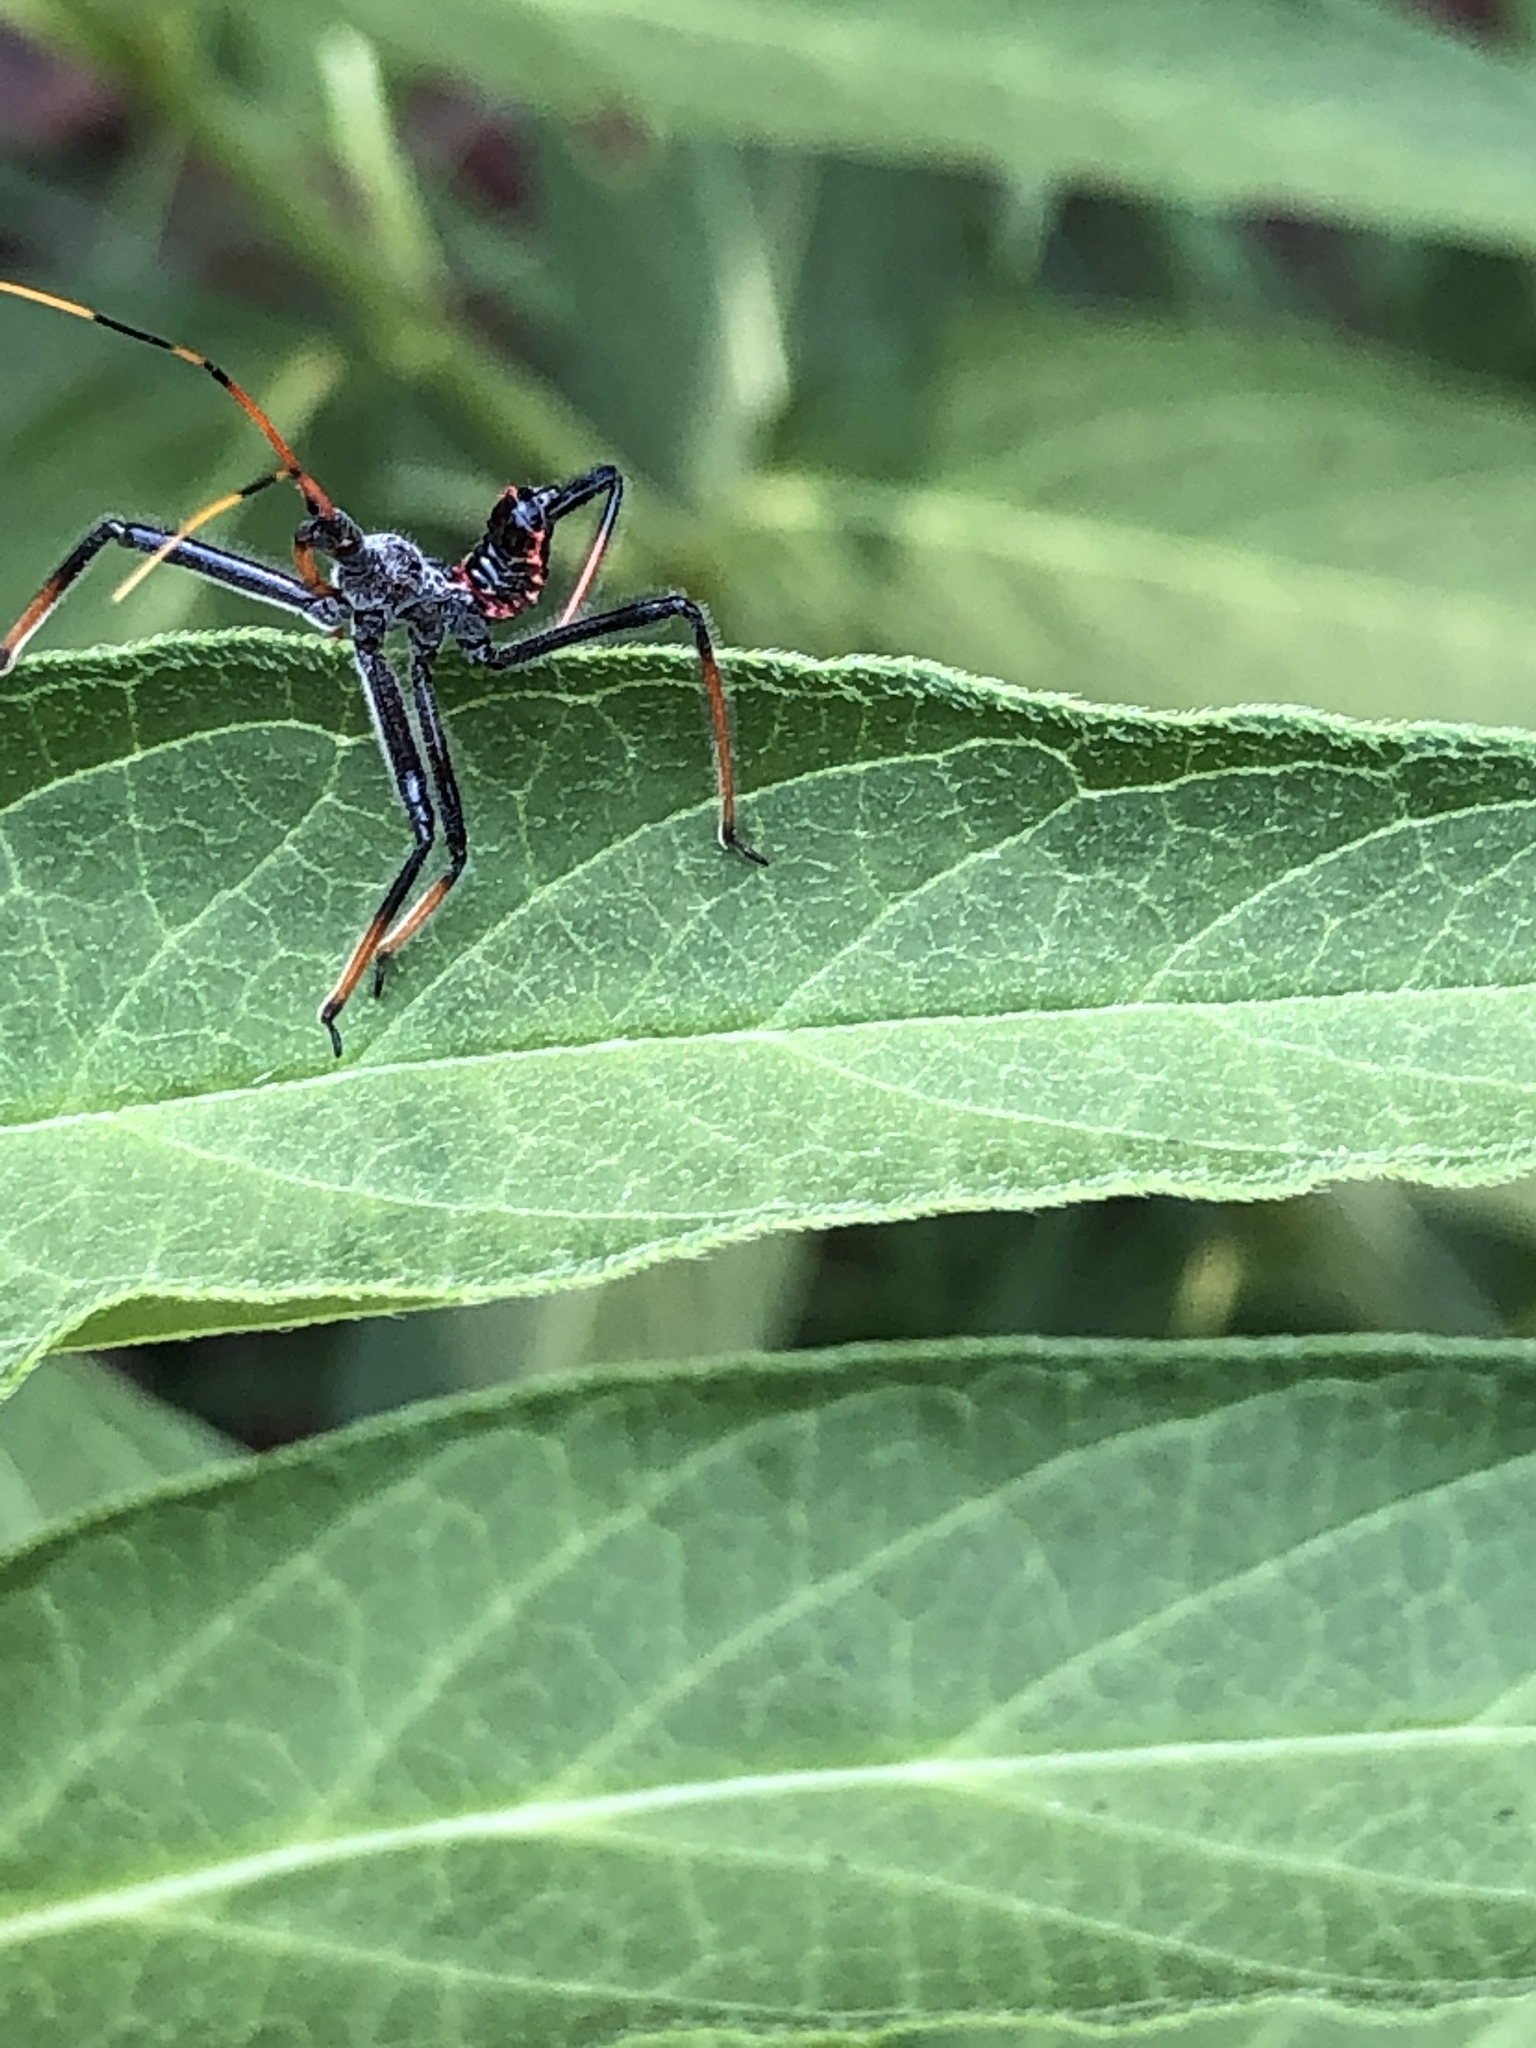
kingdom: Animalia
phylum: Arthropoda
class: Insecta
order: Hemiptera
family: Reduviidae
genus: Arilus
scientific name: Arilus cristatus
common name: North american wheel bug
